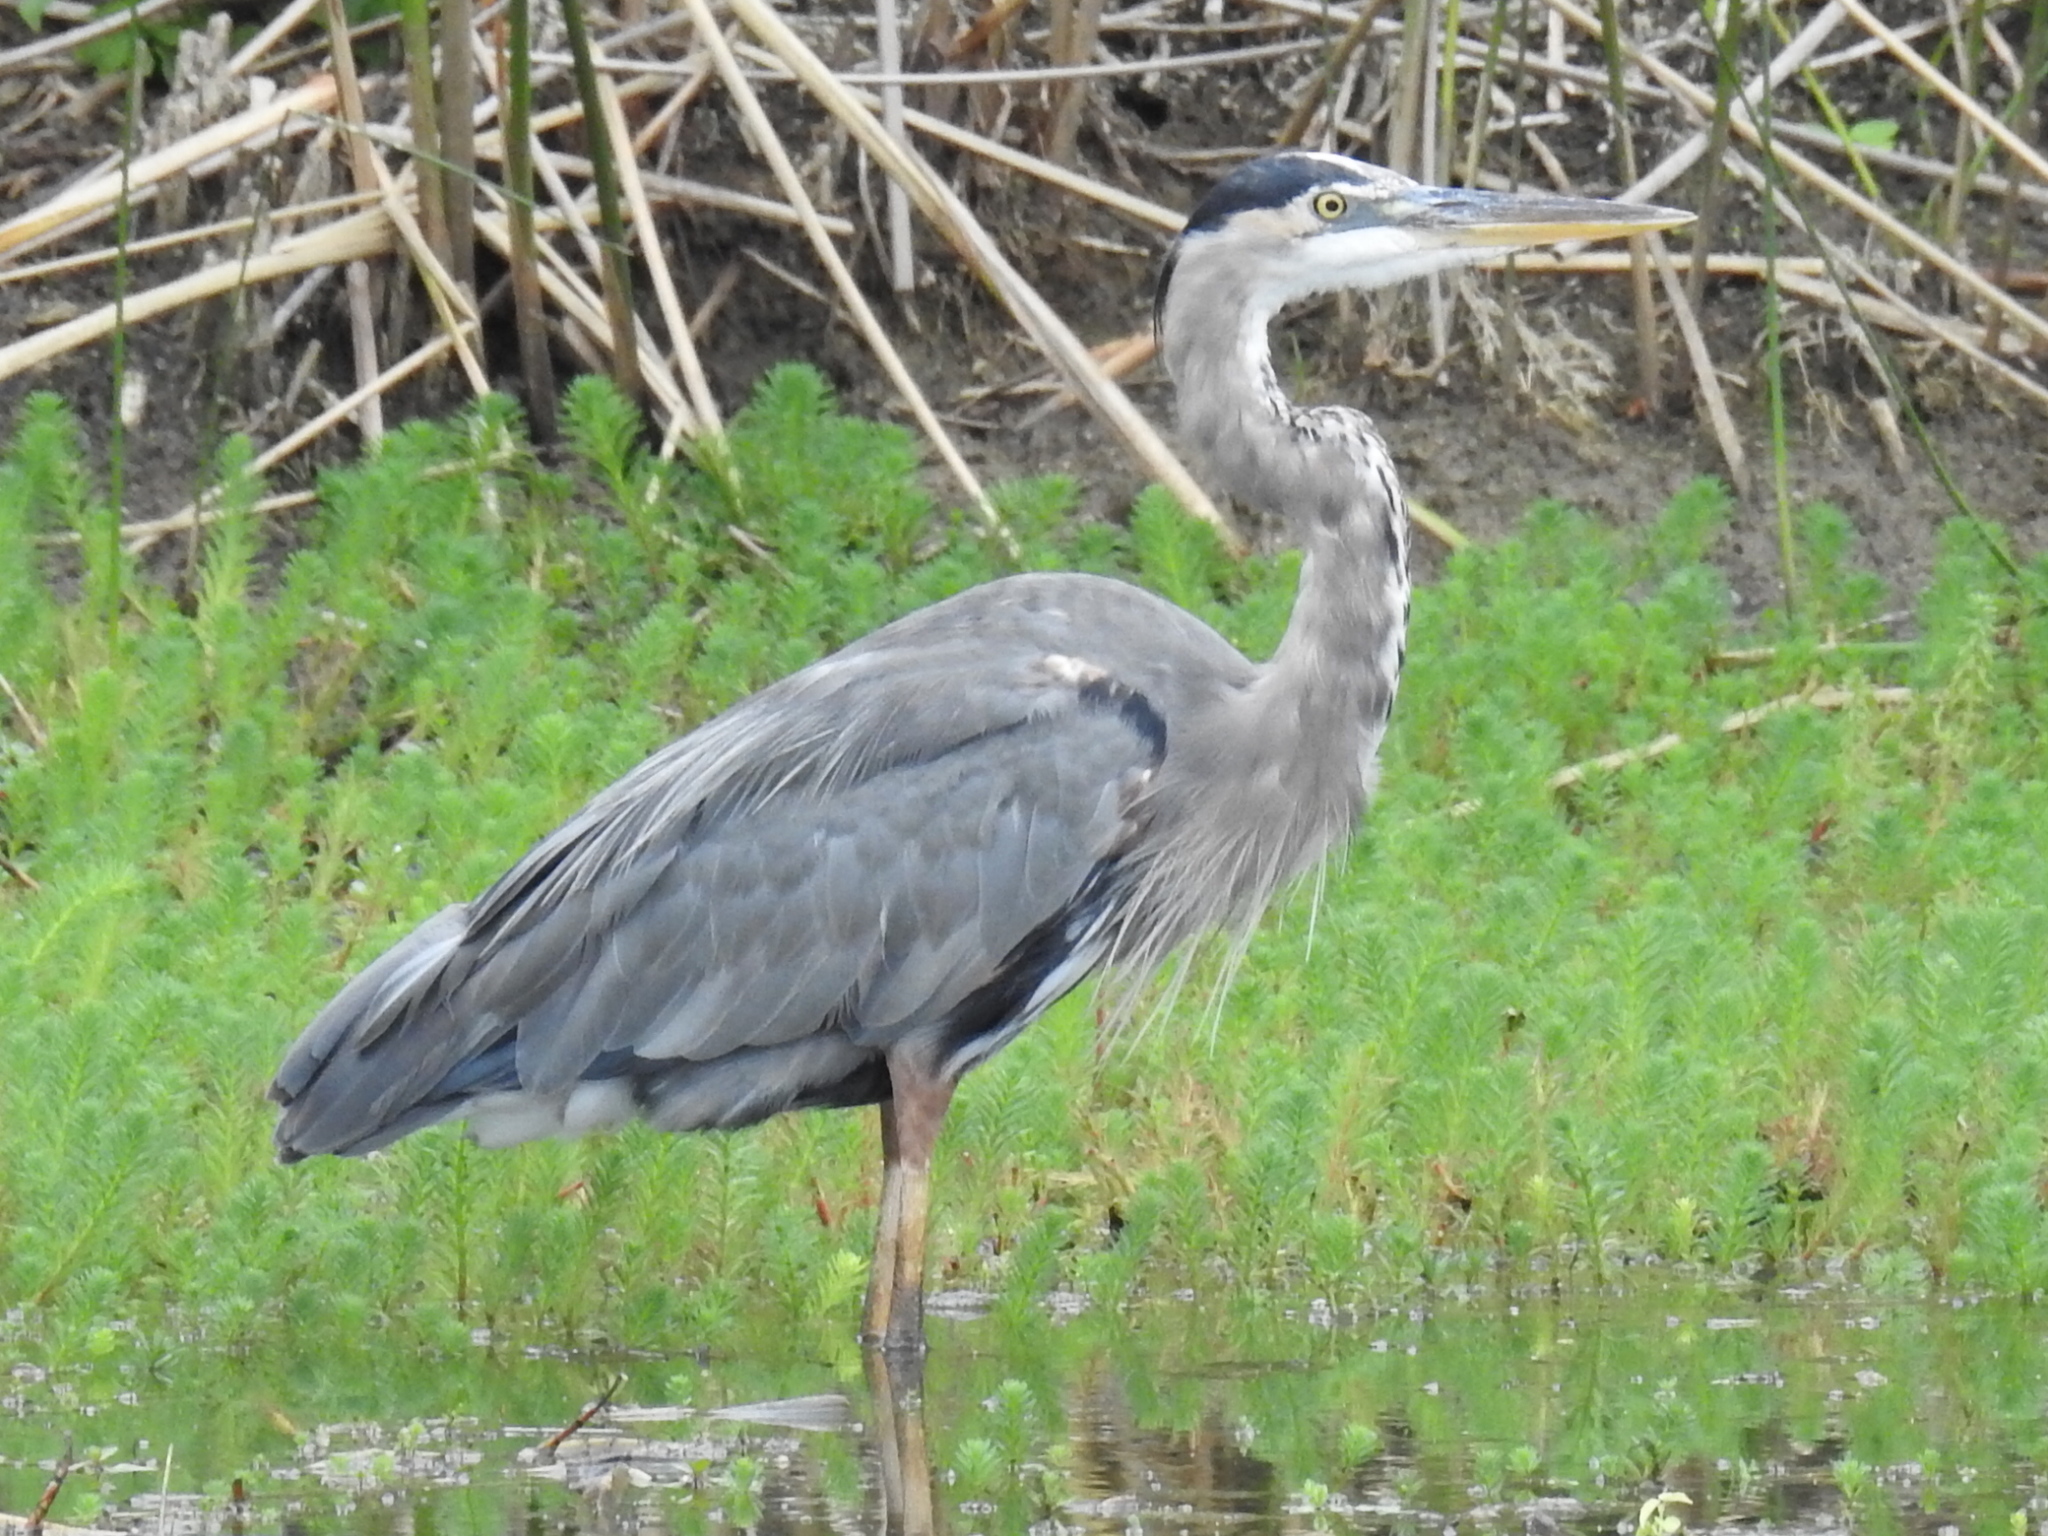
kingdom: Animalia
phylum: Chordata
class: Aves
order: Pelecaniformes
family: Ardeidae
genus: Ardea
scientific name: Ardea herodias
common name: Great blue heron
